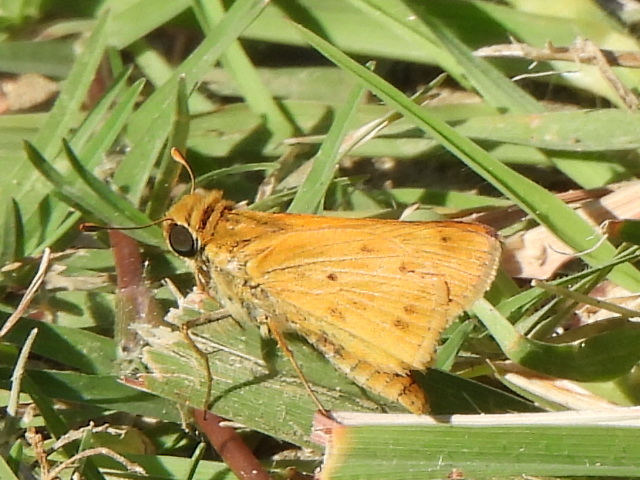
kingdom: Animalia
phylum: Arthropoda
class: Insecta
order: Lepidoptera
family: Hesperiidae
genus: Hylephila
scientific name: Hylephila phyleus
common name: Fiery skipper
